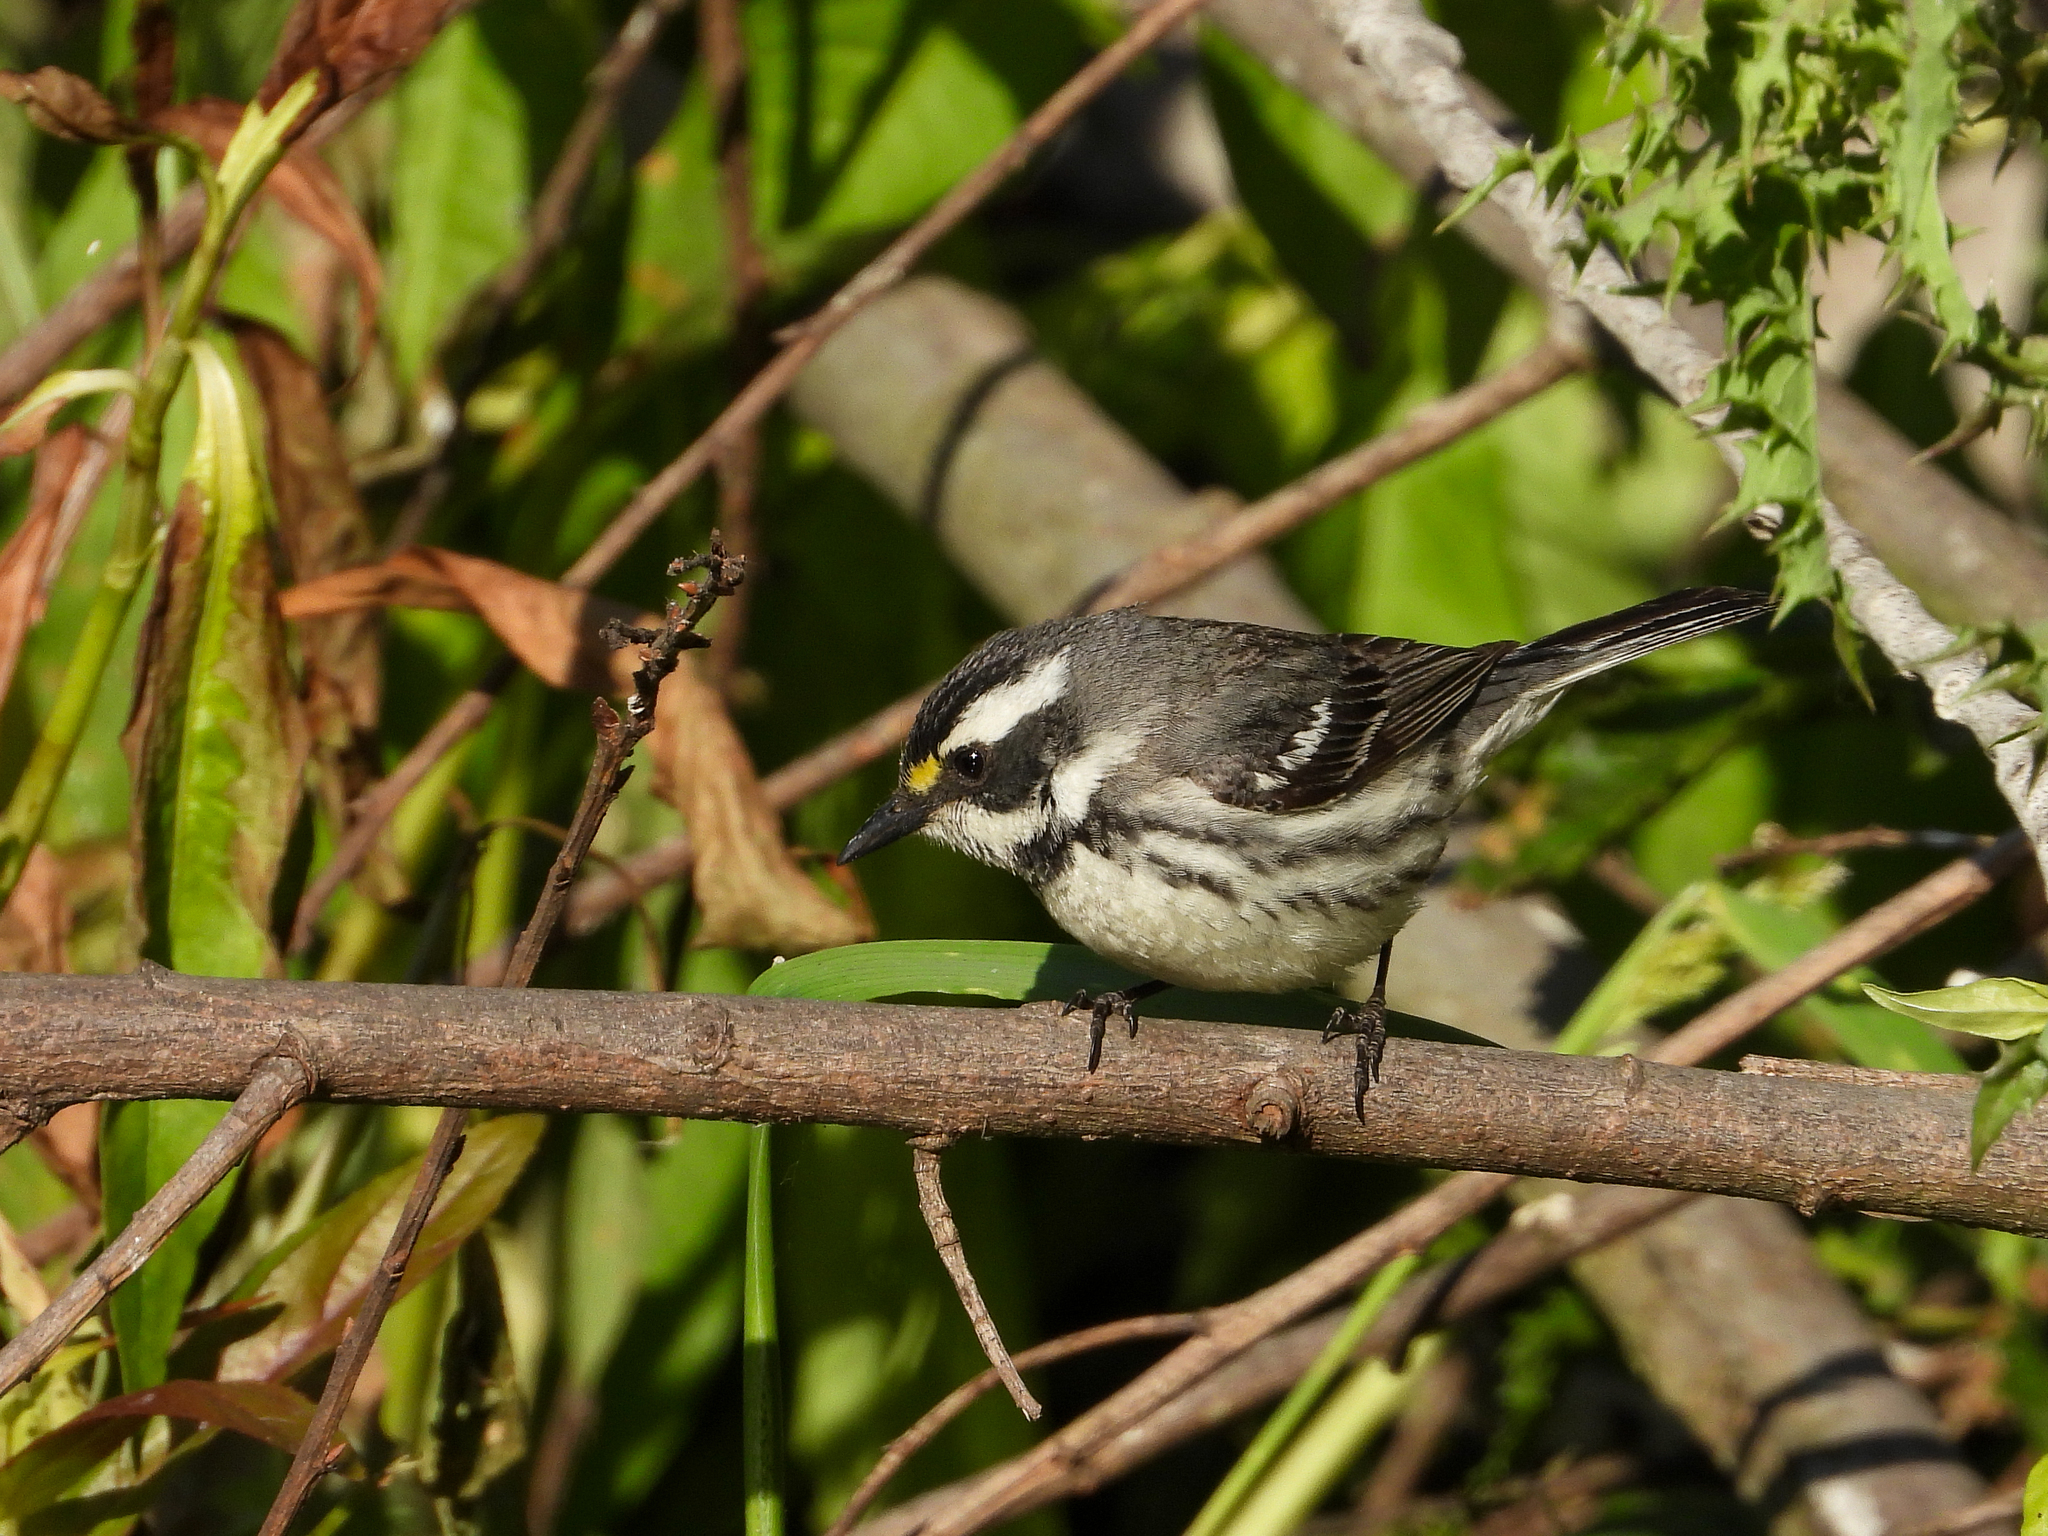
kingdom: Animalia
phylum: Chordata
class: Aves
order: Passeriformes
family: Parulidae
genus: Setophaga
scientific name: Setophaga nigrescens
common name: Black-throated gray warbler
